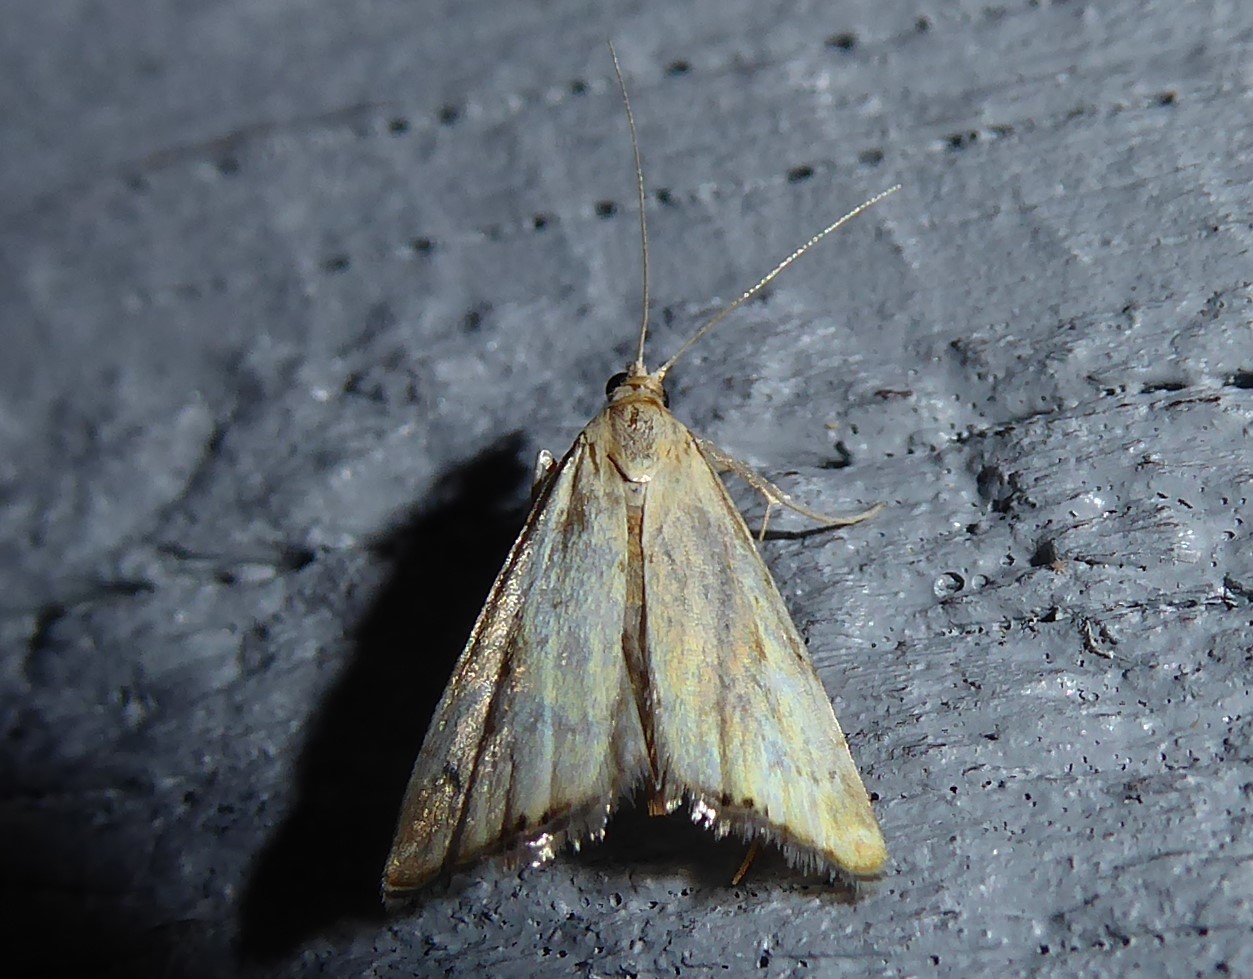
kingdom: Animalia
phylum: Arthropoda
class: Insecta
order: Lepidoptera
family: Crambidae
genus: Glaucocharis
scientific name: Glaucocharis lepidella
